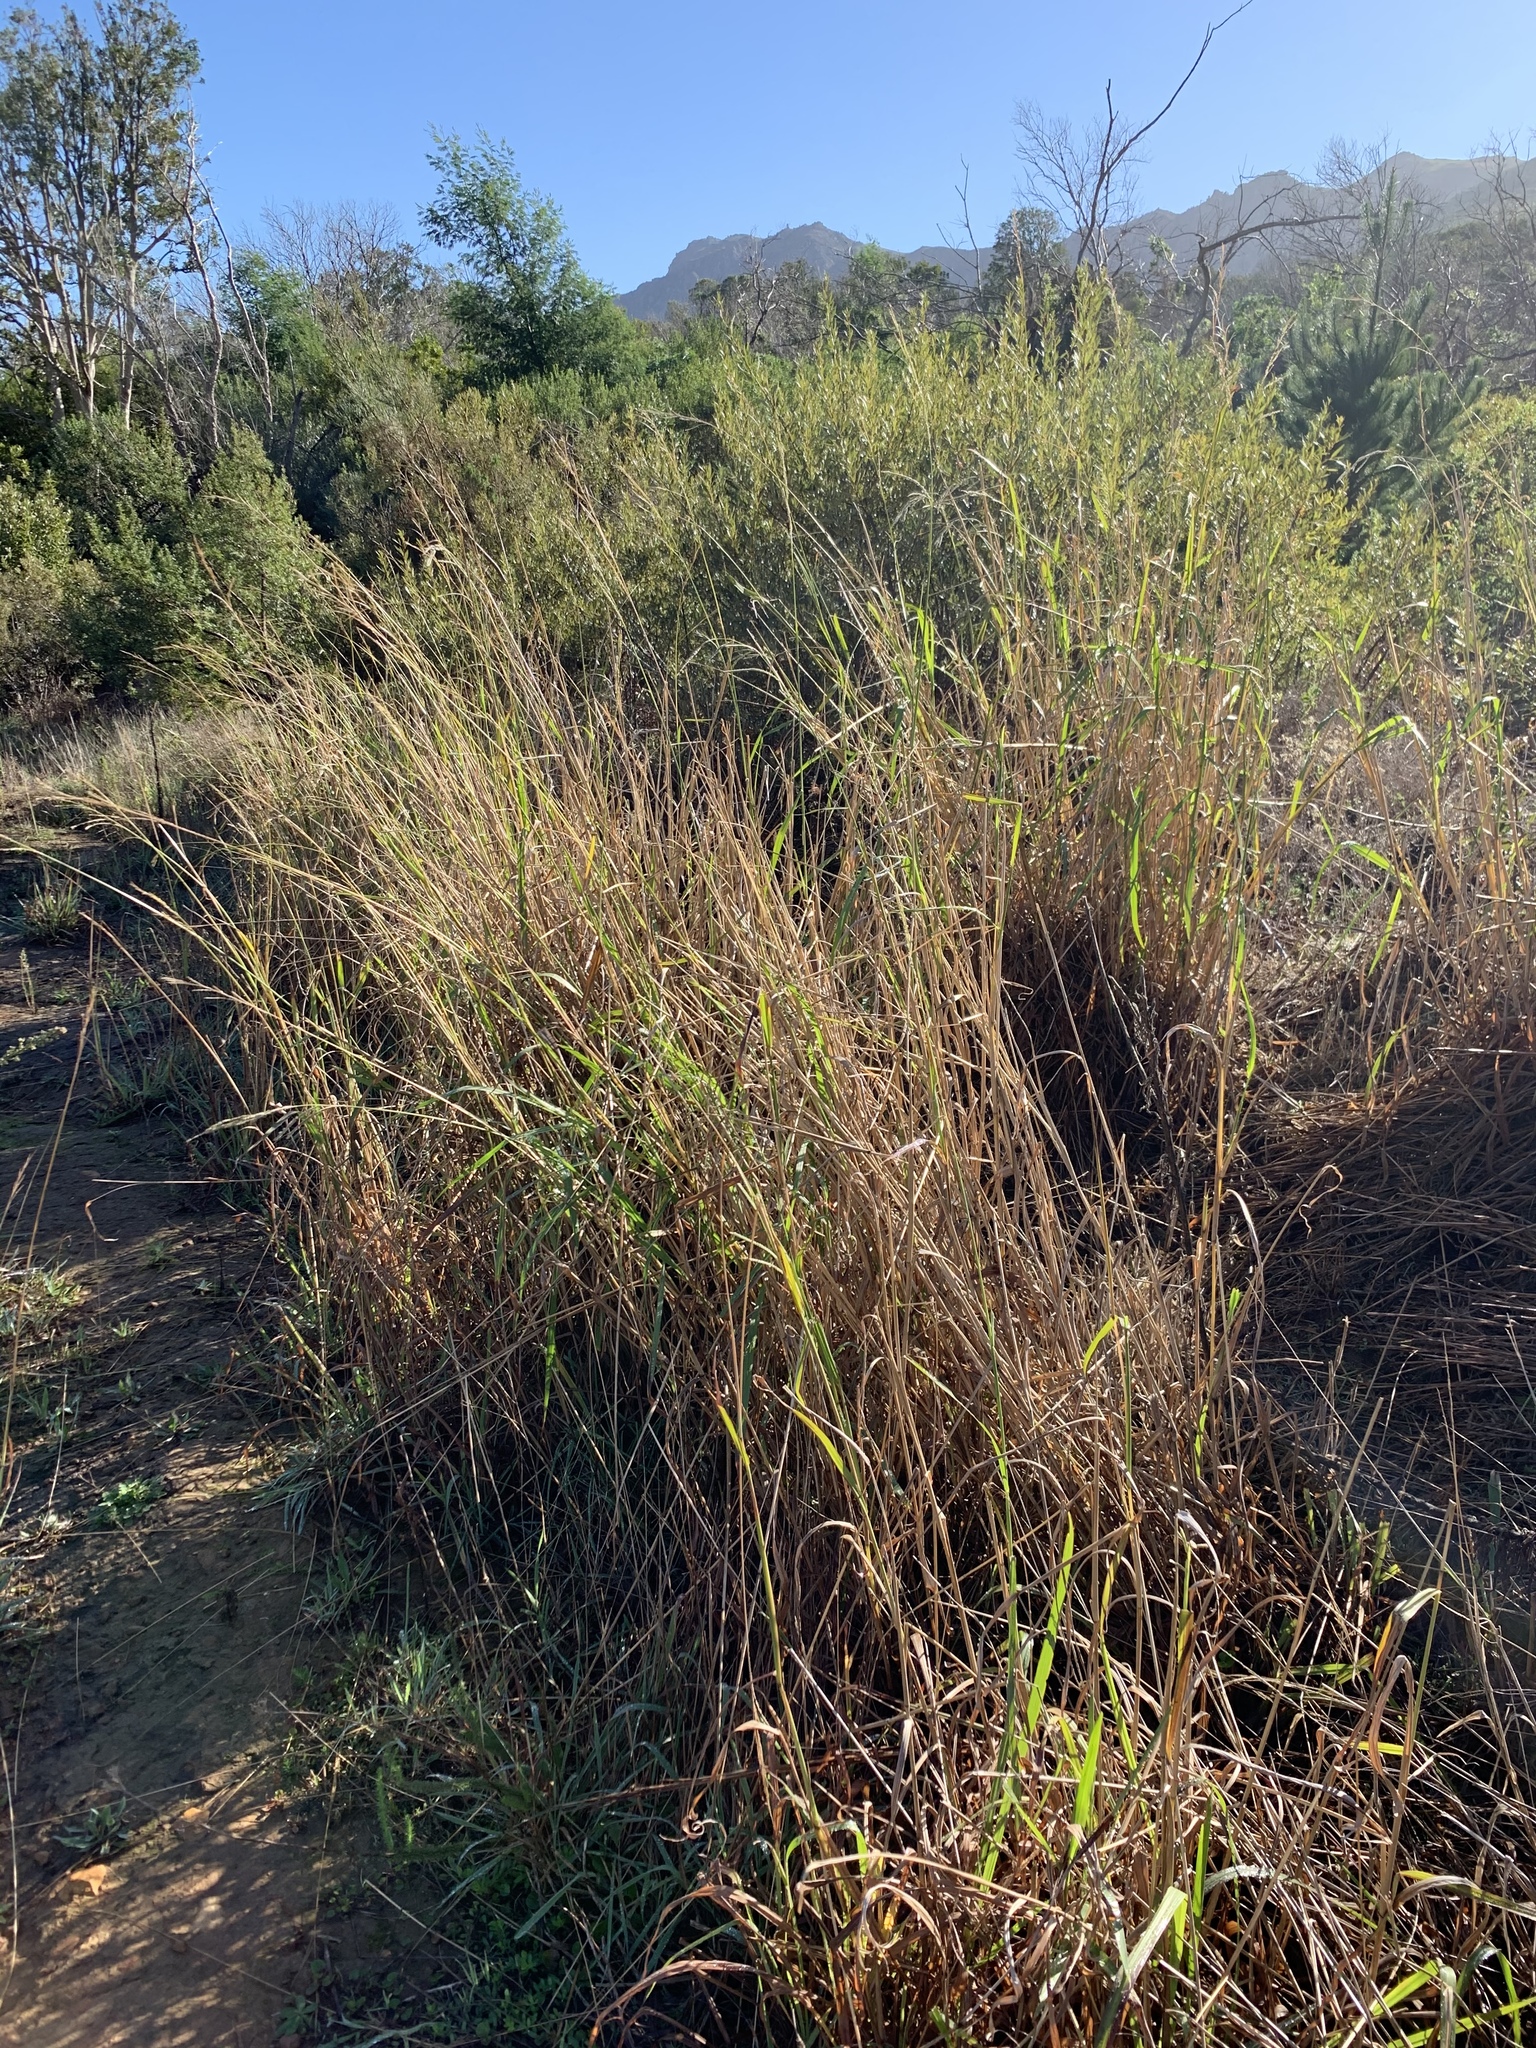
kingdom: Plantae
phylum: Tracheophyta
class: Liliopsida
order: Poales
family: Poaceae
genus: Paspalum
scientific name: Paspalum urvillei
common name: Vasey's grass
